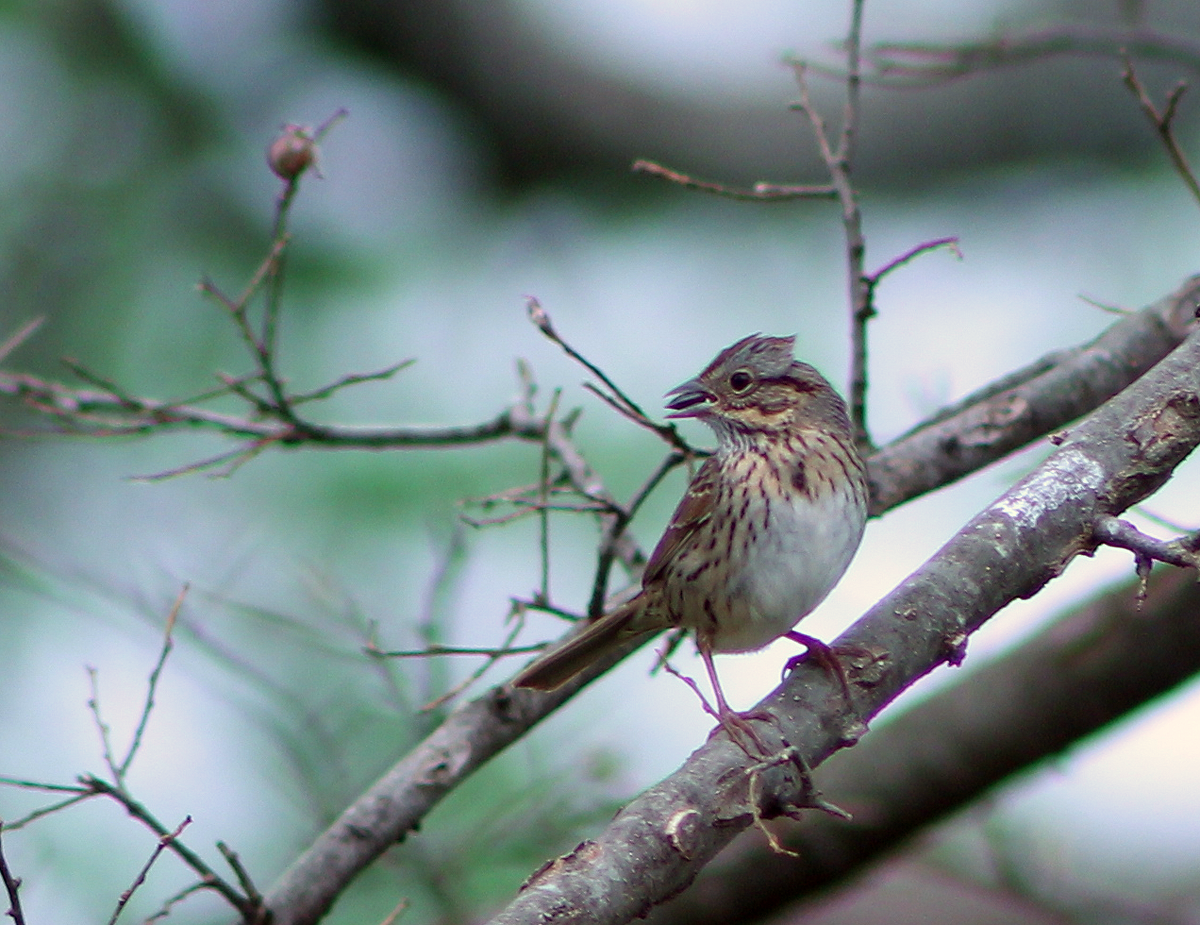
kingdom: Animalia
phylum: Chordata
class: Aves
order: Passeriformes
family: Passerellidae
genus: Melospiza
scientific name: Melospiza lincolnii
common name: Lincoln's sparrow
